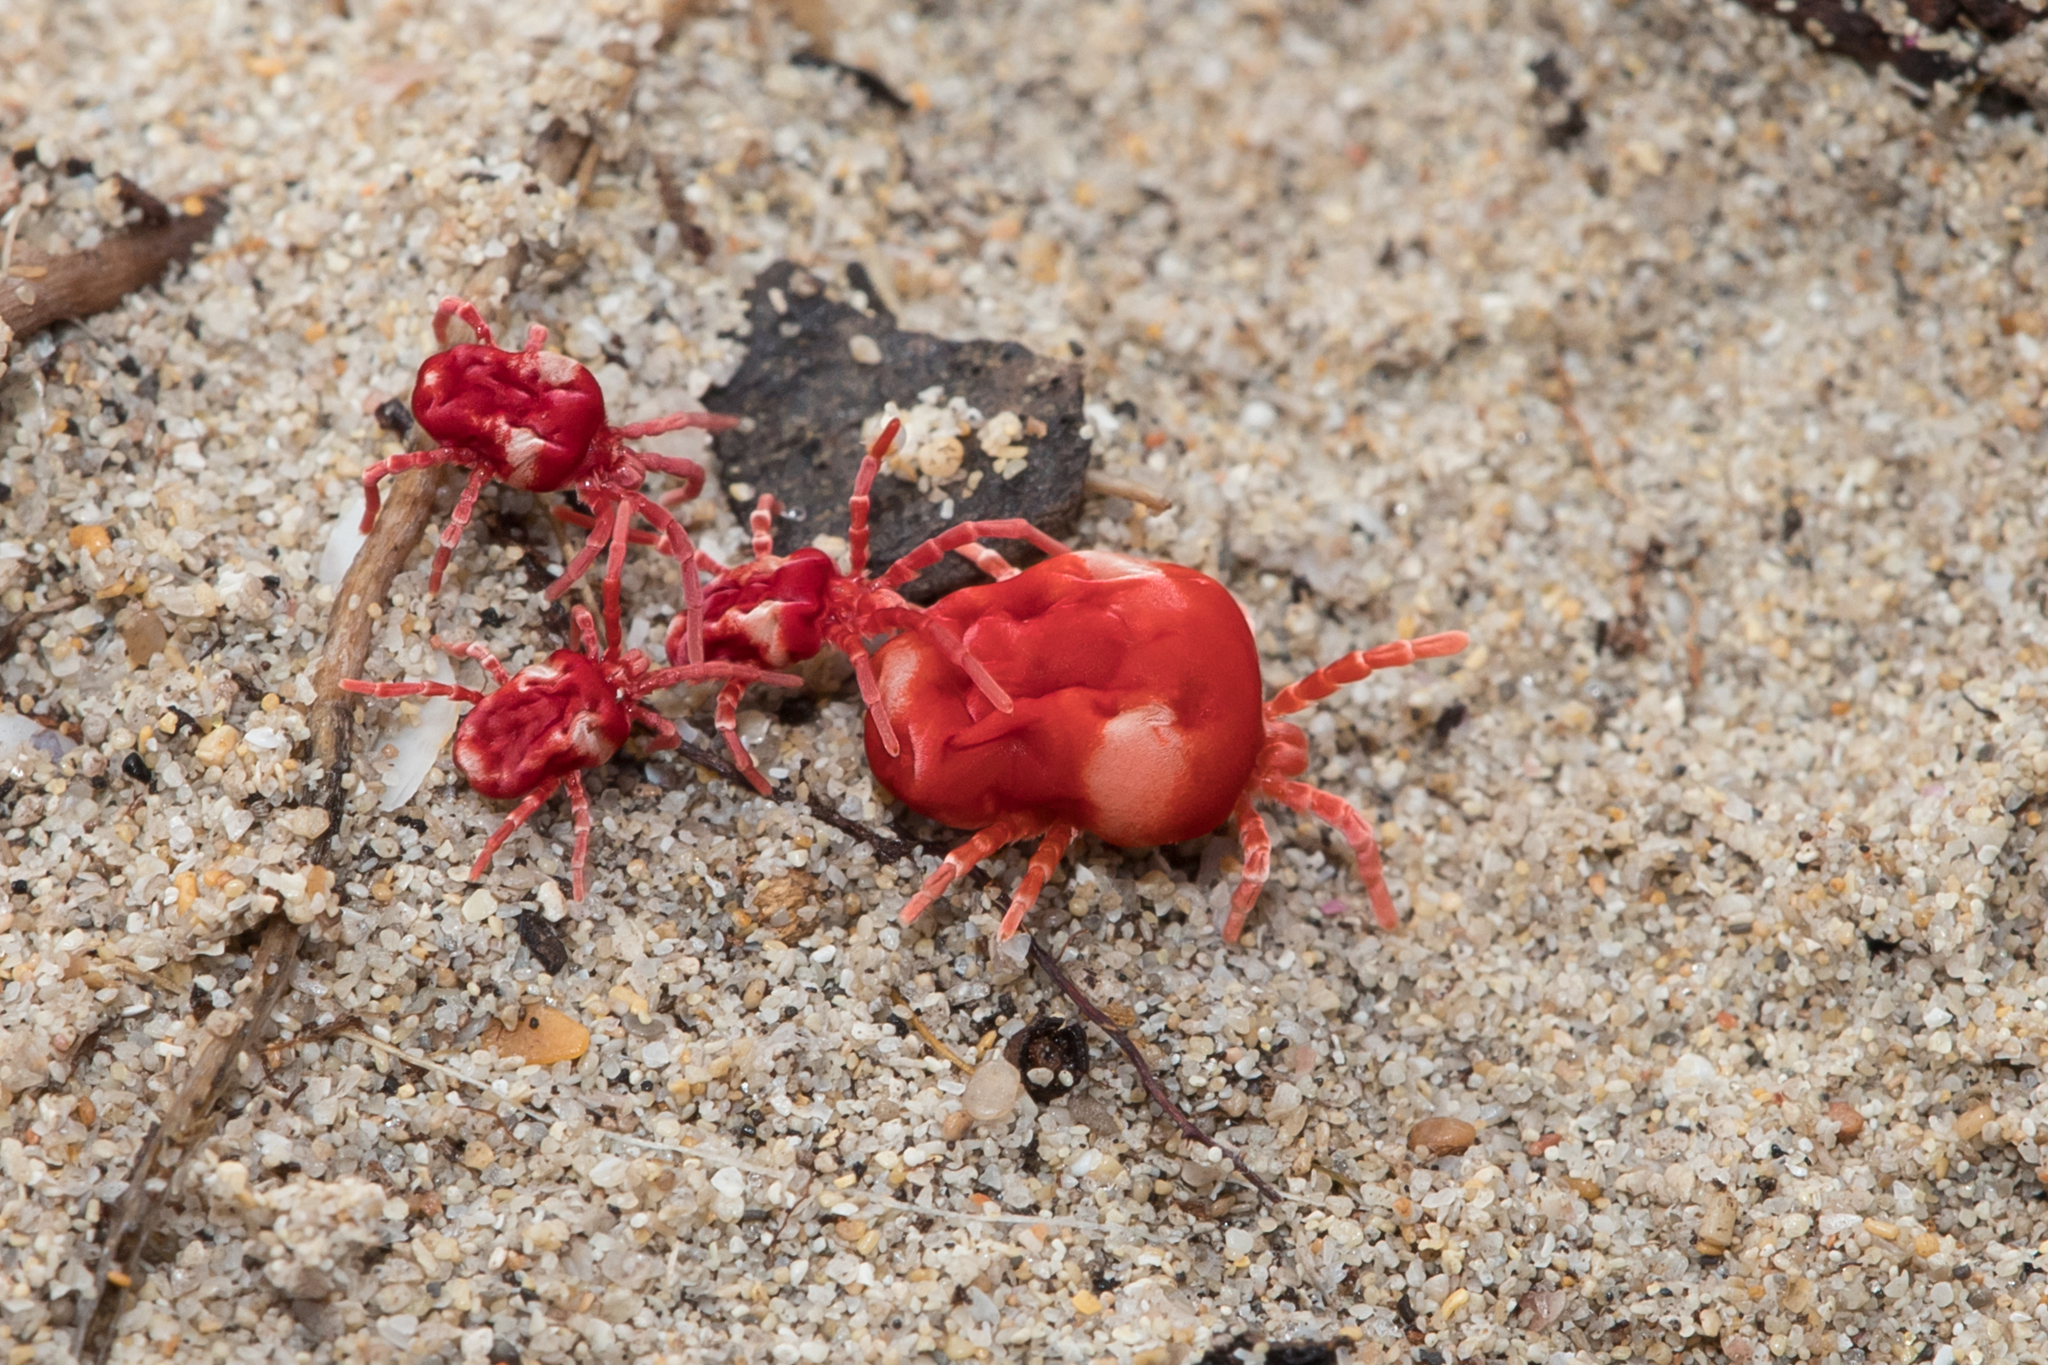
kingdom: Animalia
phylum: Arthropoda
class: Arachnida
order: Trombidiformes
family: Trombidiidae
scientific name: Trombidiidae
